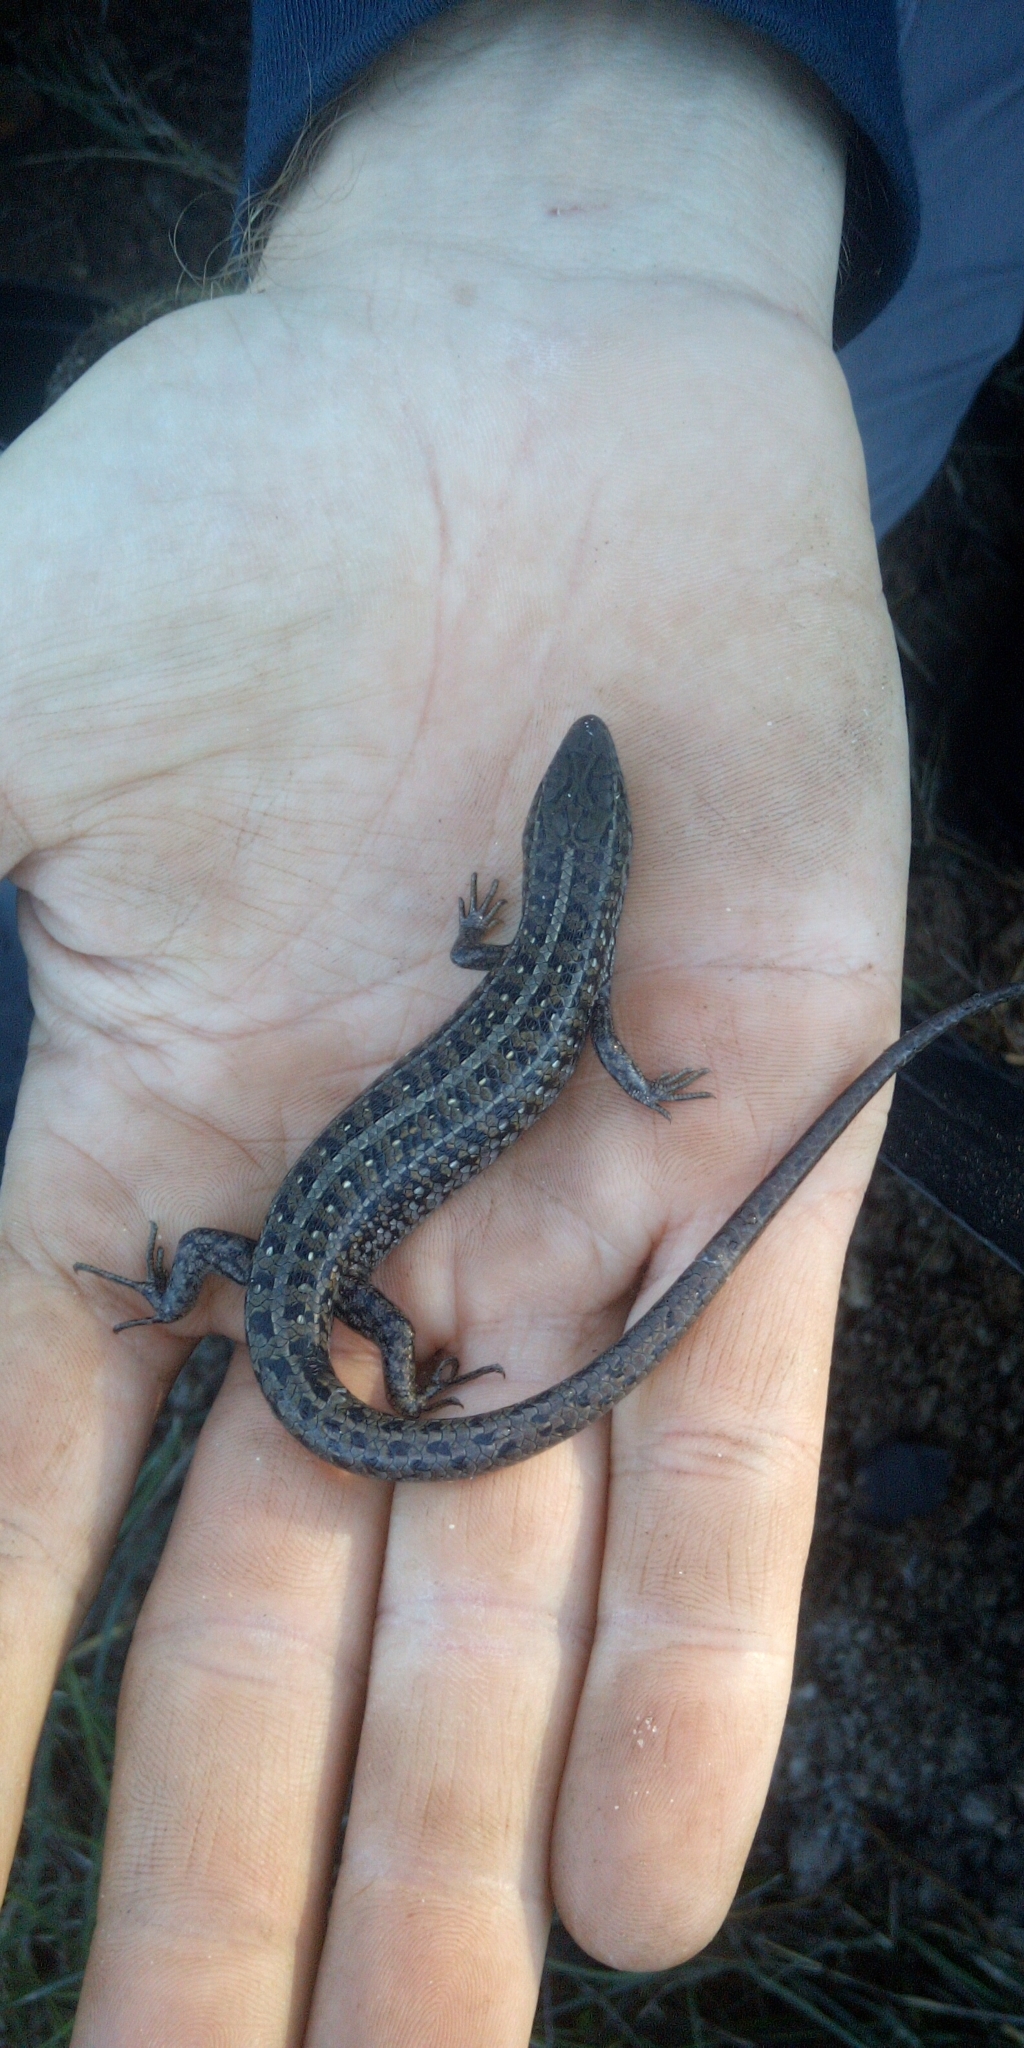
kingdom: Animalia
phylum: Chordata
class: Squamata
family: Scincidae
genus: Trachylepis
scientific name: Trachylepis capensis
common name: Cape skink
